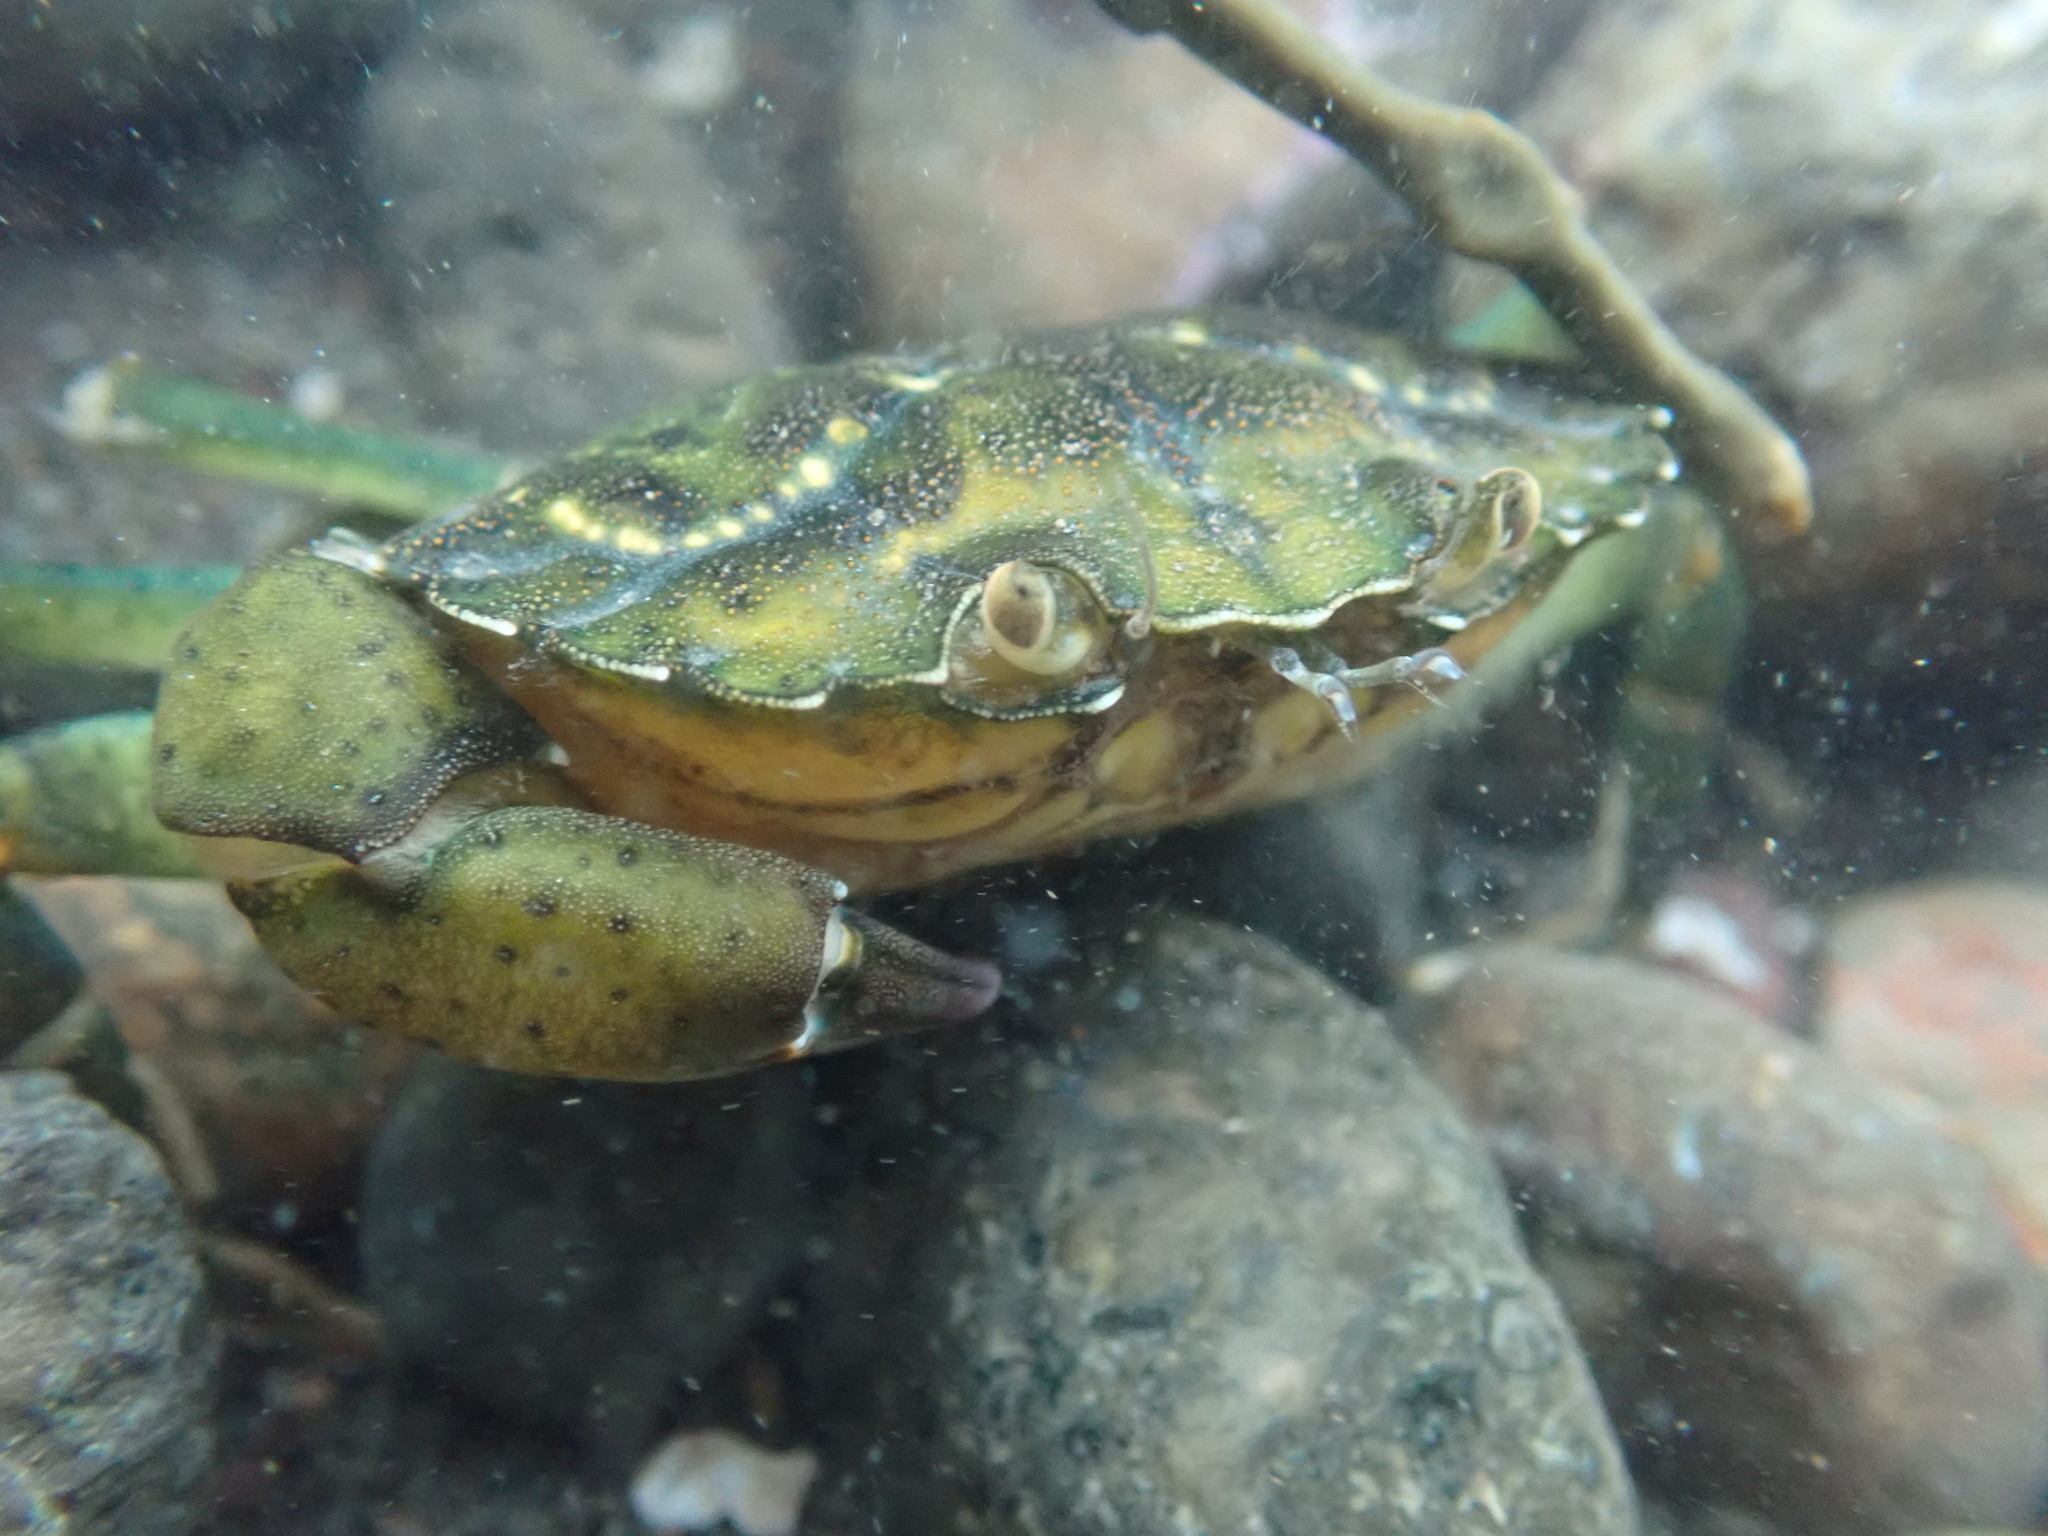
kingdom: Animalia
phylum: Arthropoda
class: Malacostraca
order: Decapoda
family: Carcinidae
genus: Carcinus
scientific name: Carcinus maenas
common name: European green crab
